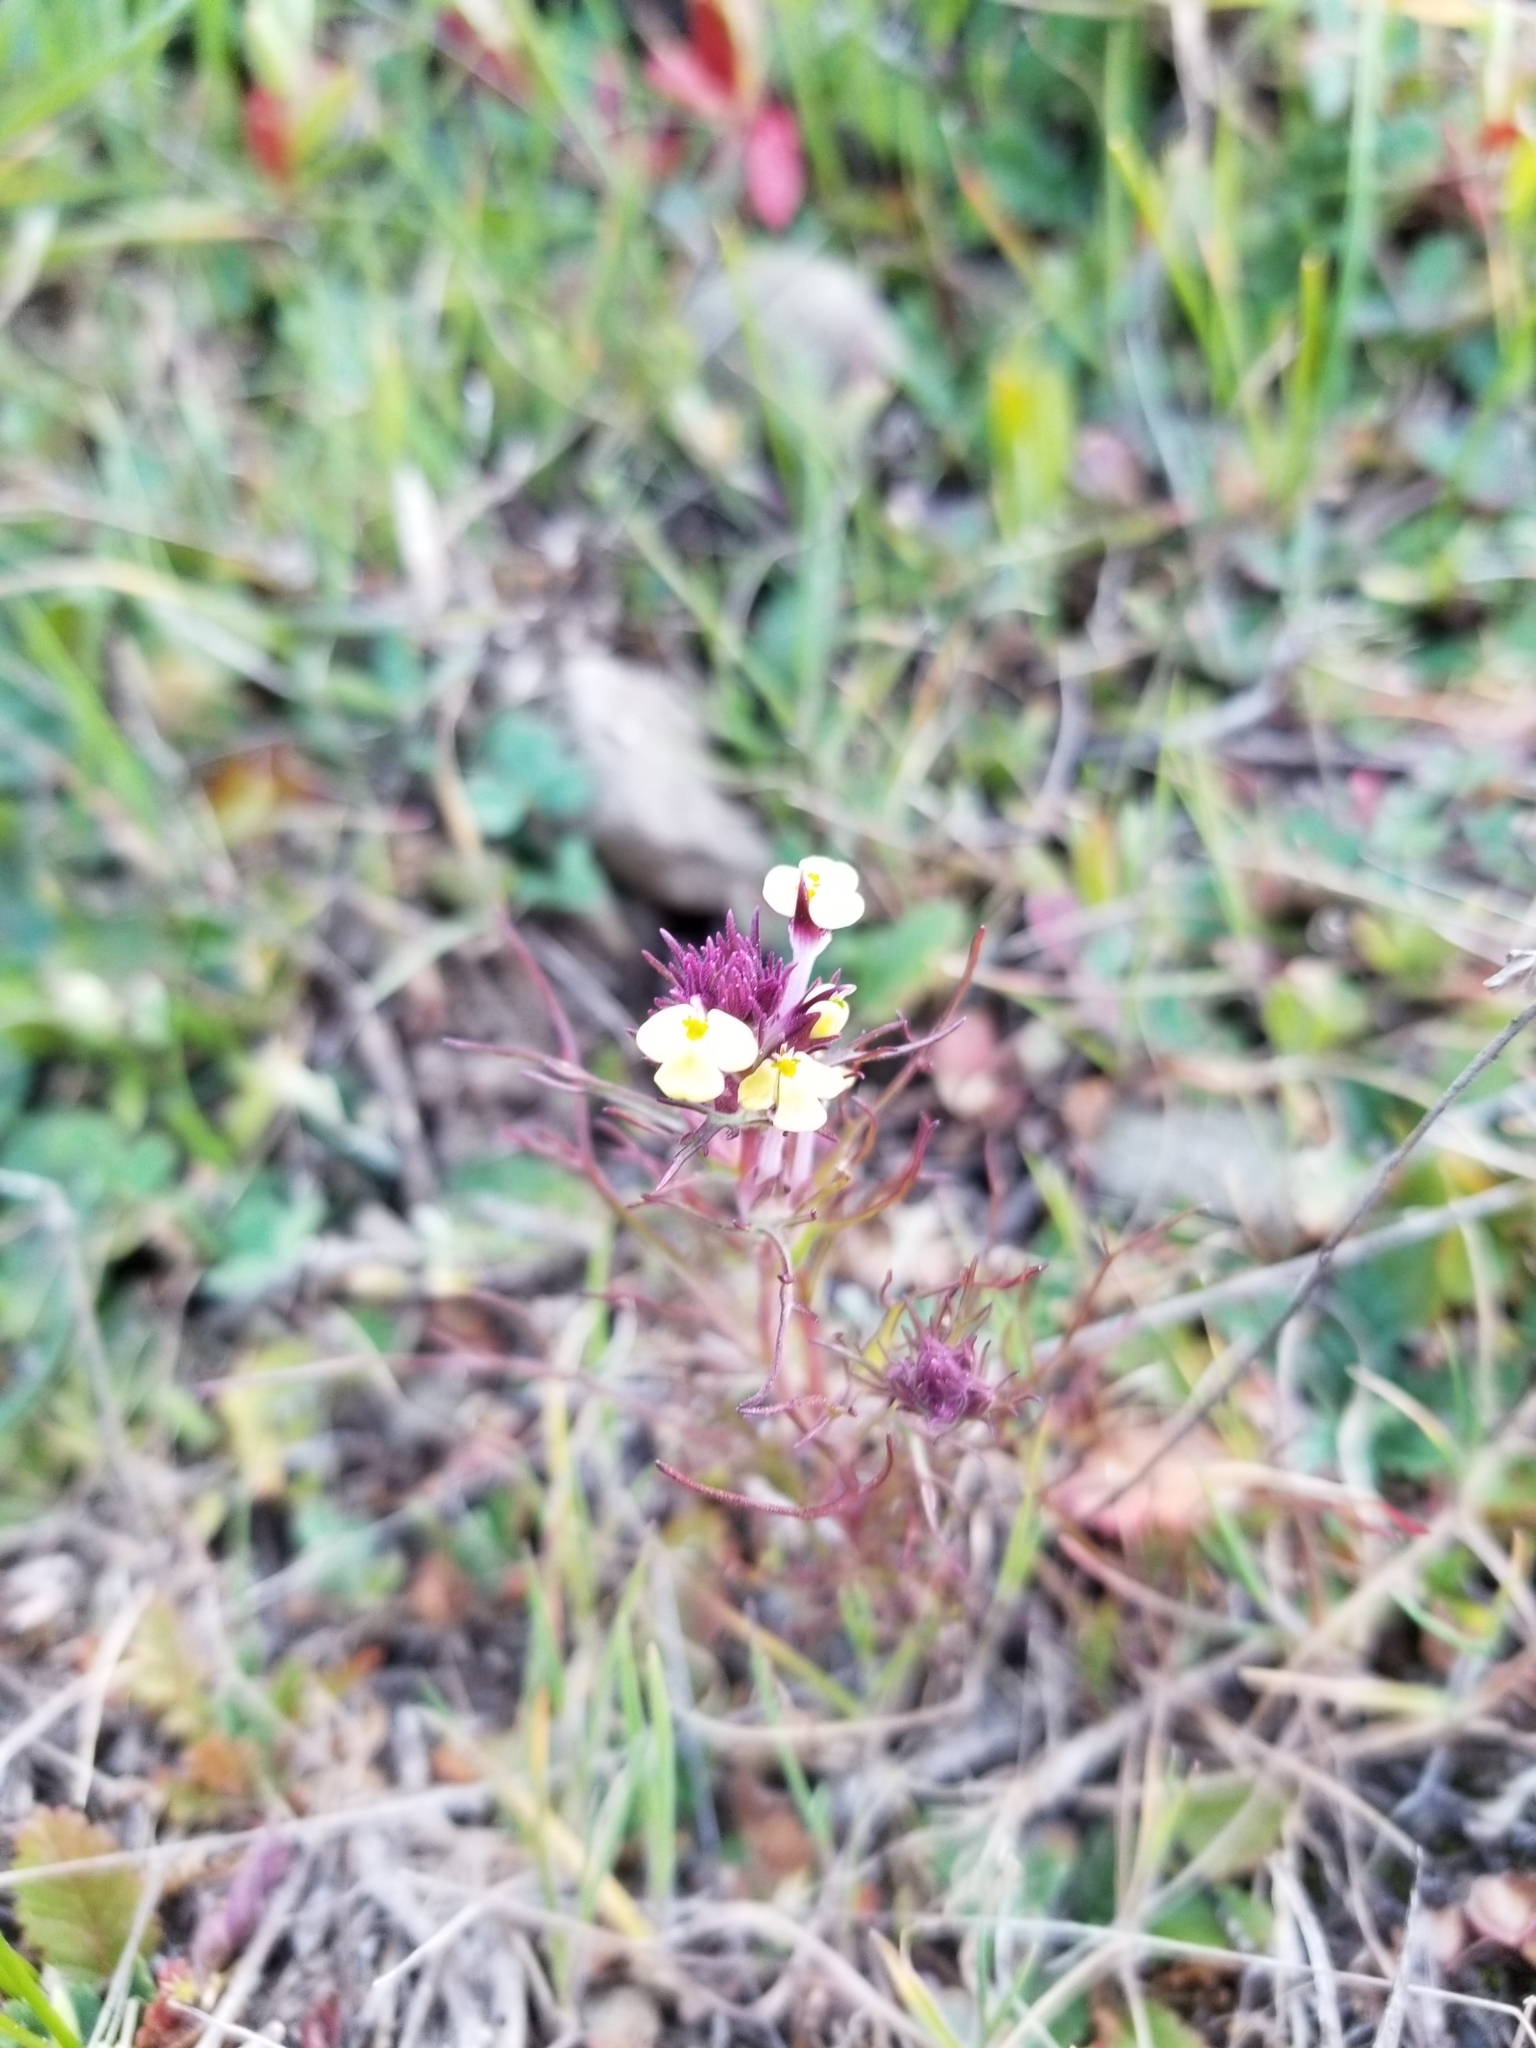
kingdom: Plantae
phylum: Tracheophyta
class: Magnoliopsida
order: Lamiales
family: Orobanchaceae
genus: Triphysaria
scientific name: Triphysaria eriantha
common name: Johnny-tuck
